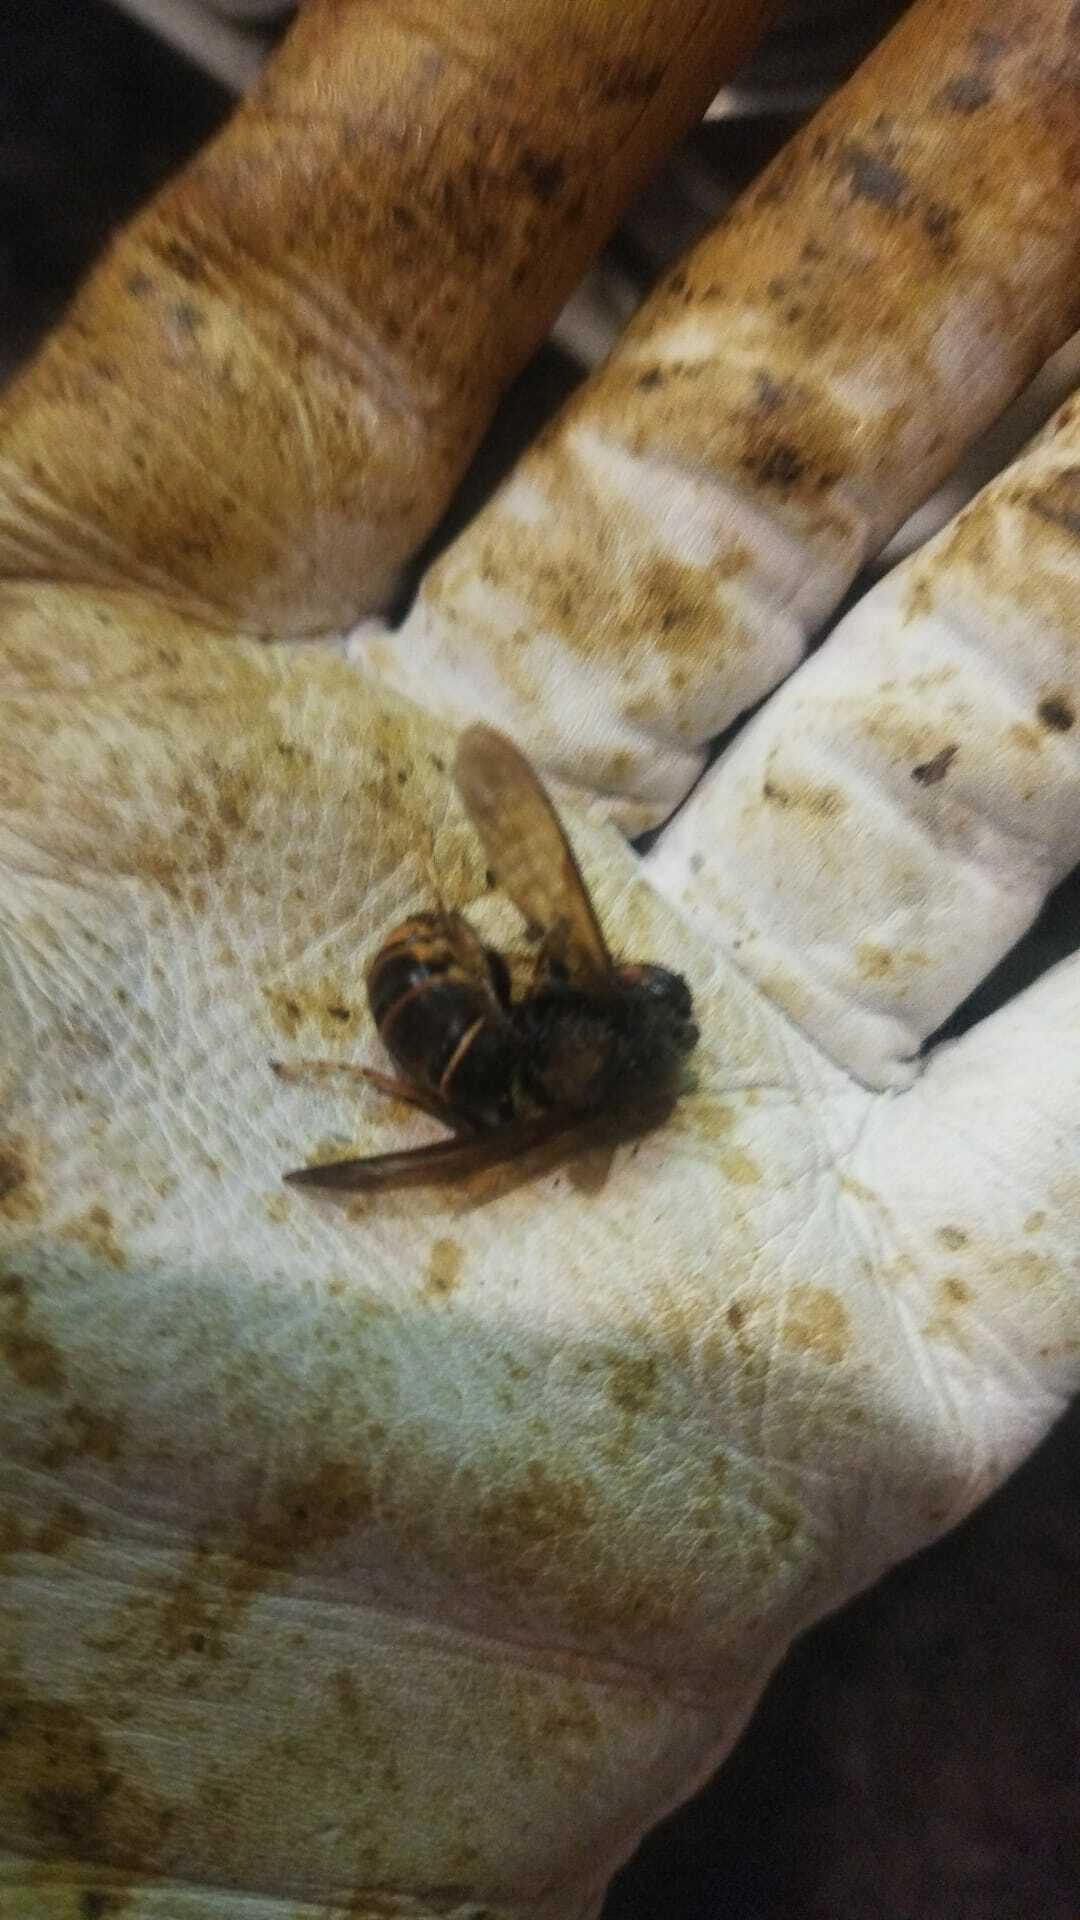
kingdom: Animalia
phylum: Arthropoda
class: Insecta
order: Hymenoptera
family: Vespidae
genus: Vespa
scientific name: Vespa velutina
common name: Asian hornet
